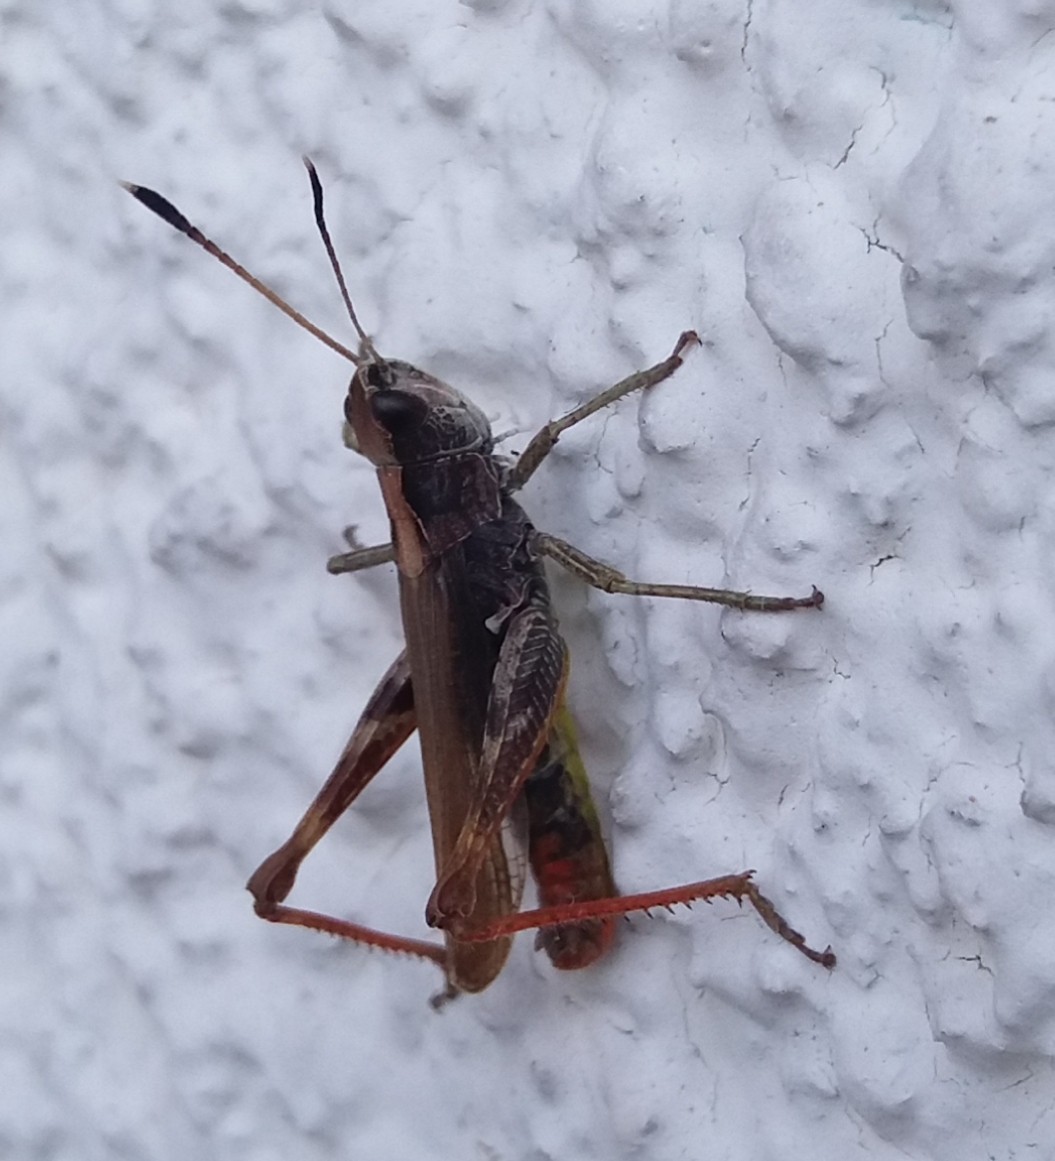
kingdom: Animalia
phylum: Arthropoda
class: Insecta
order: Orthoptera
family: Acrididae
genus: Gomphocerippus
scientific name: Gomphocerippus rufus
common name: Rufous grasshopper
